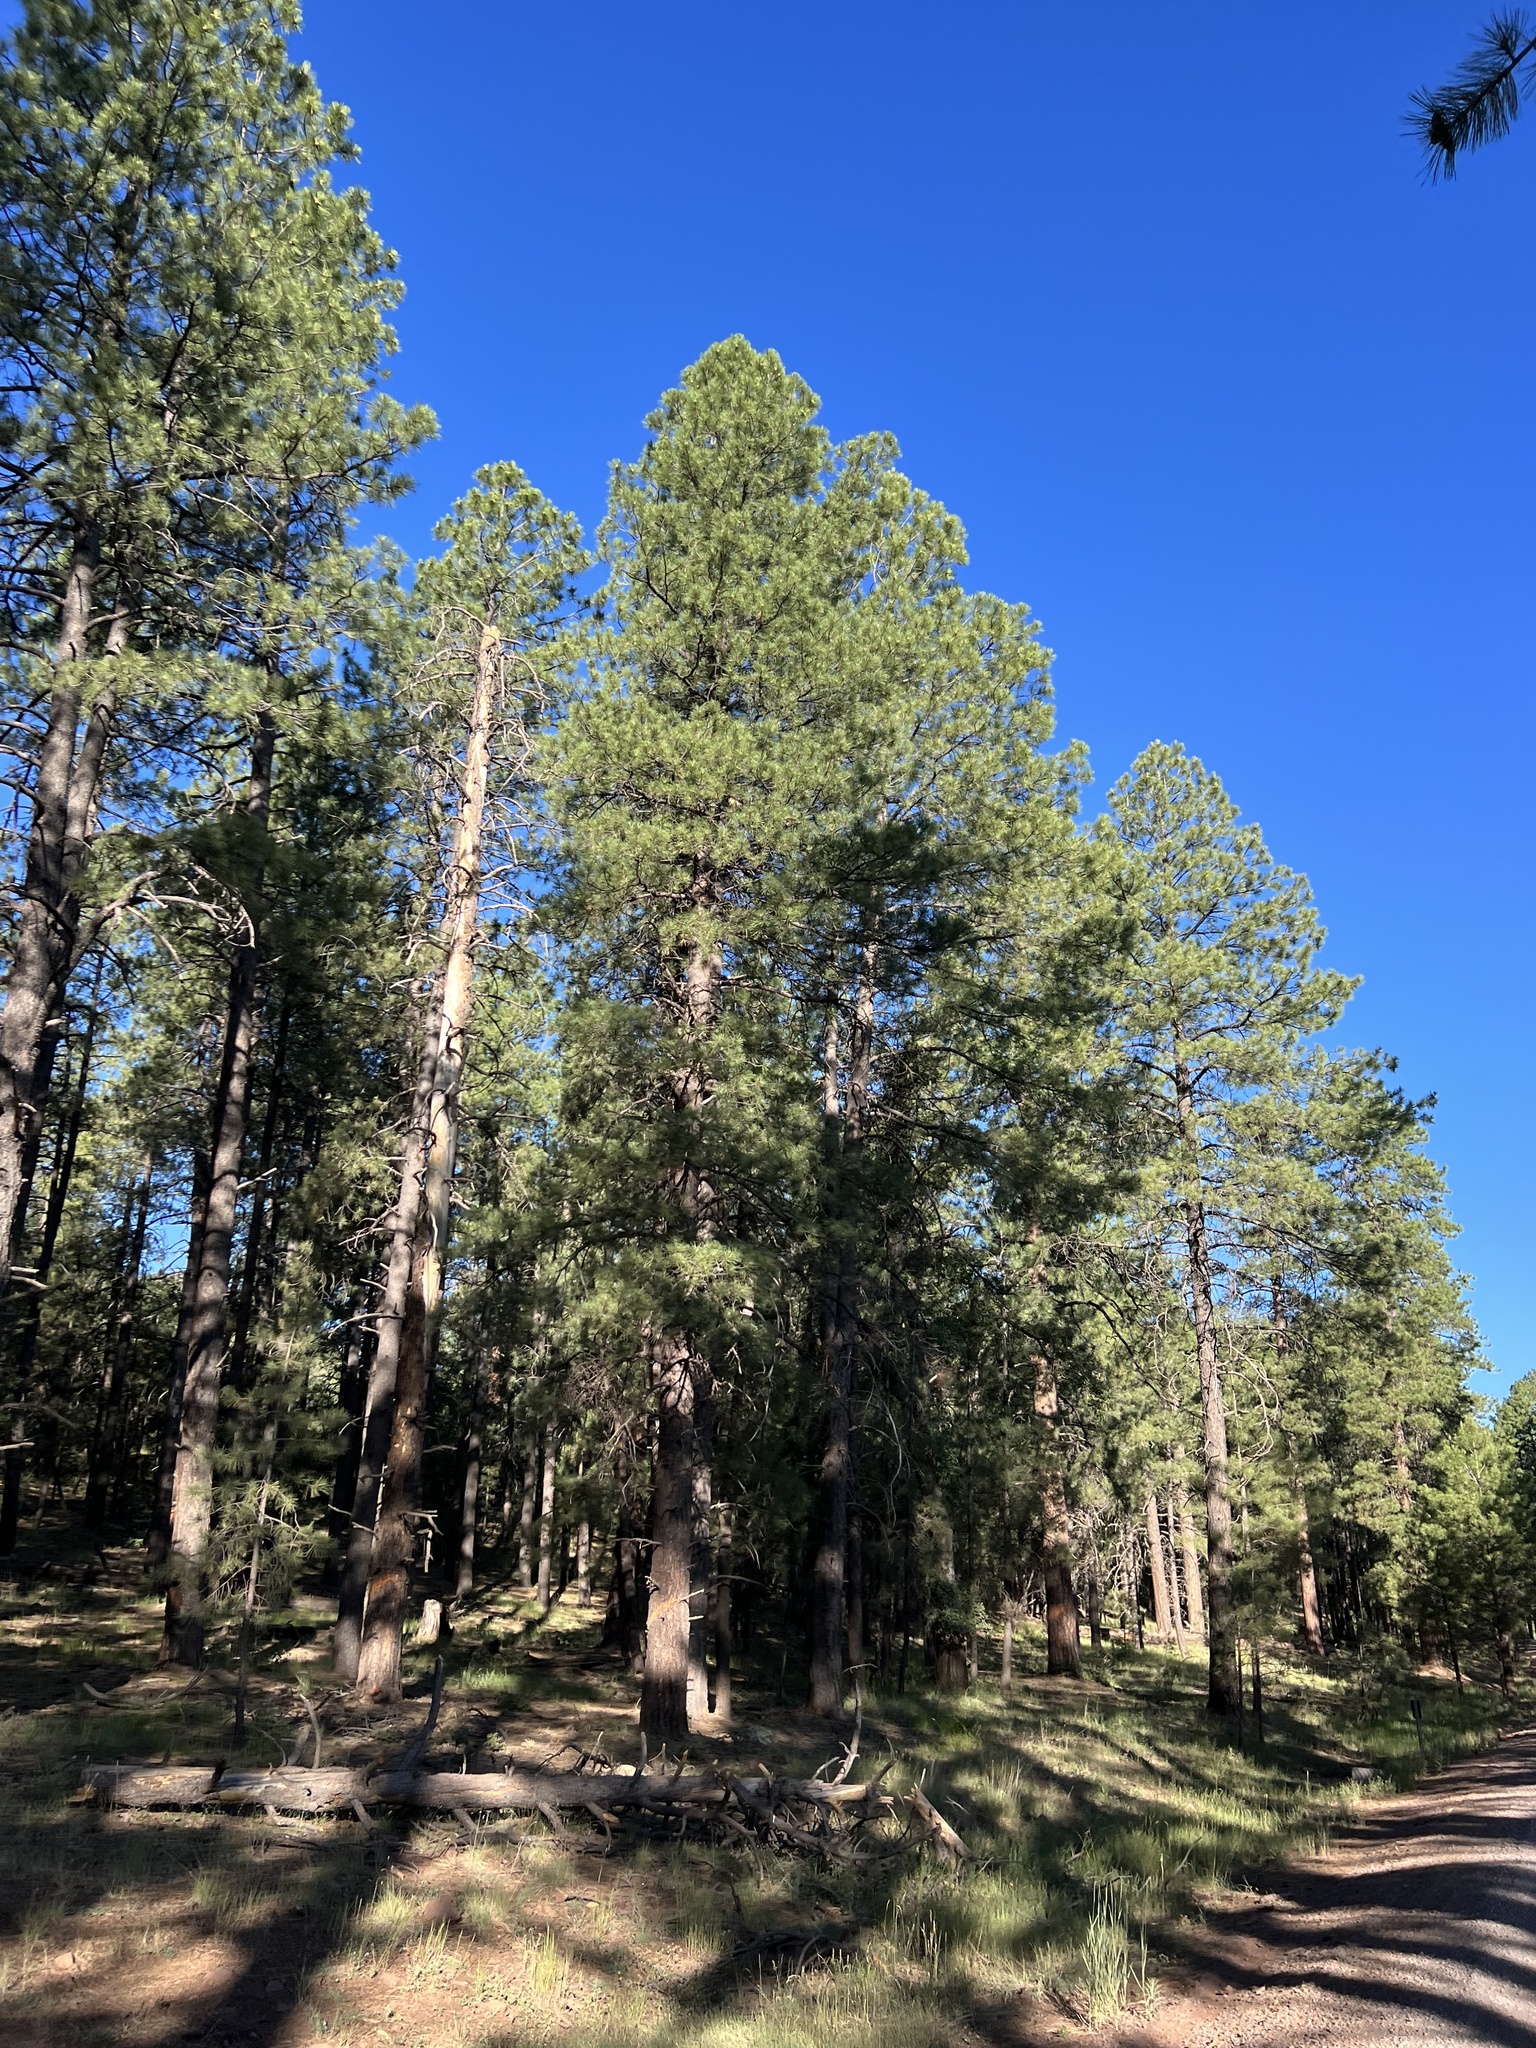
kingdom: Plantae
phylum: Tracheophyta
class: Pinopsida
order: Pinales
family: Pinaceae
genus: Pinus
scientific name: Pinus ponderosa
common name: Western yellow-pine
